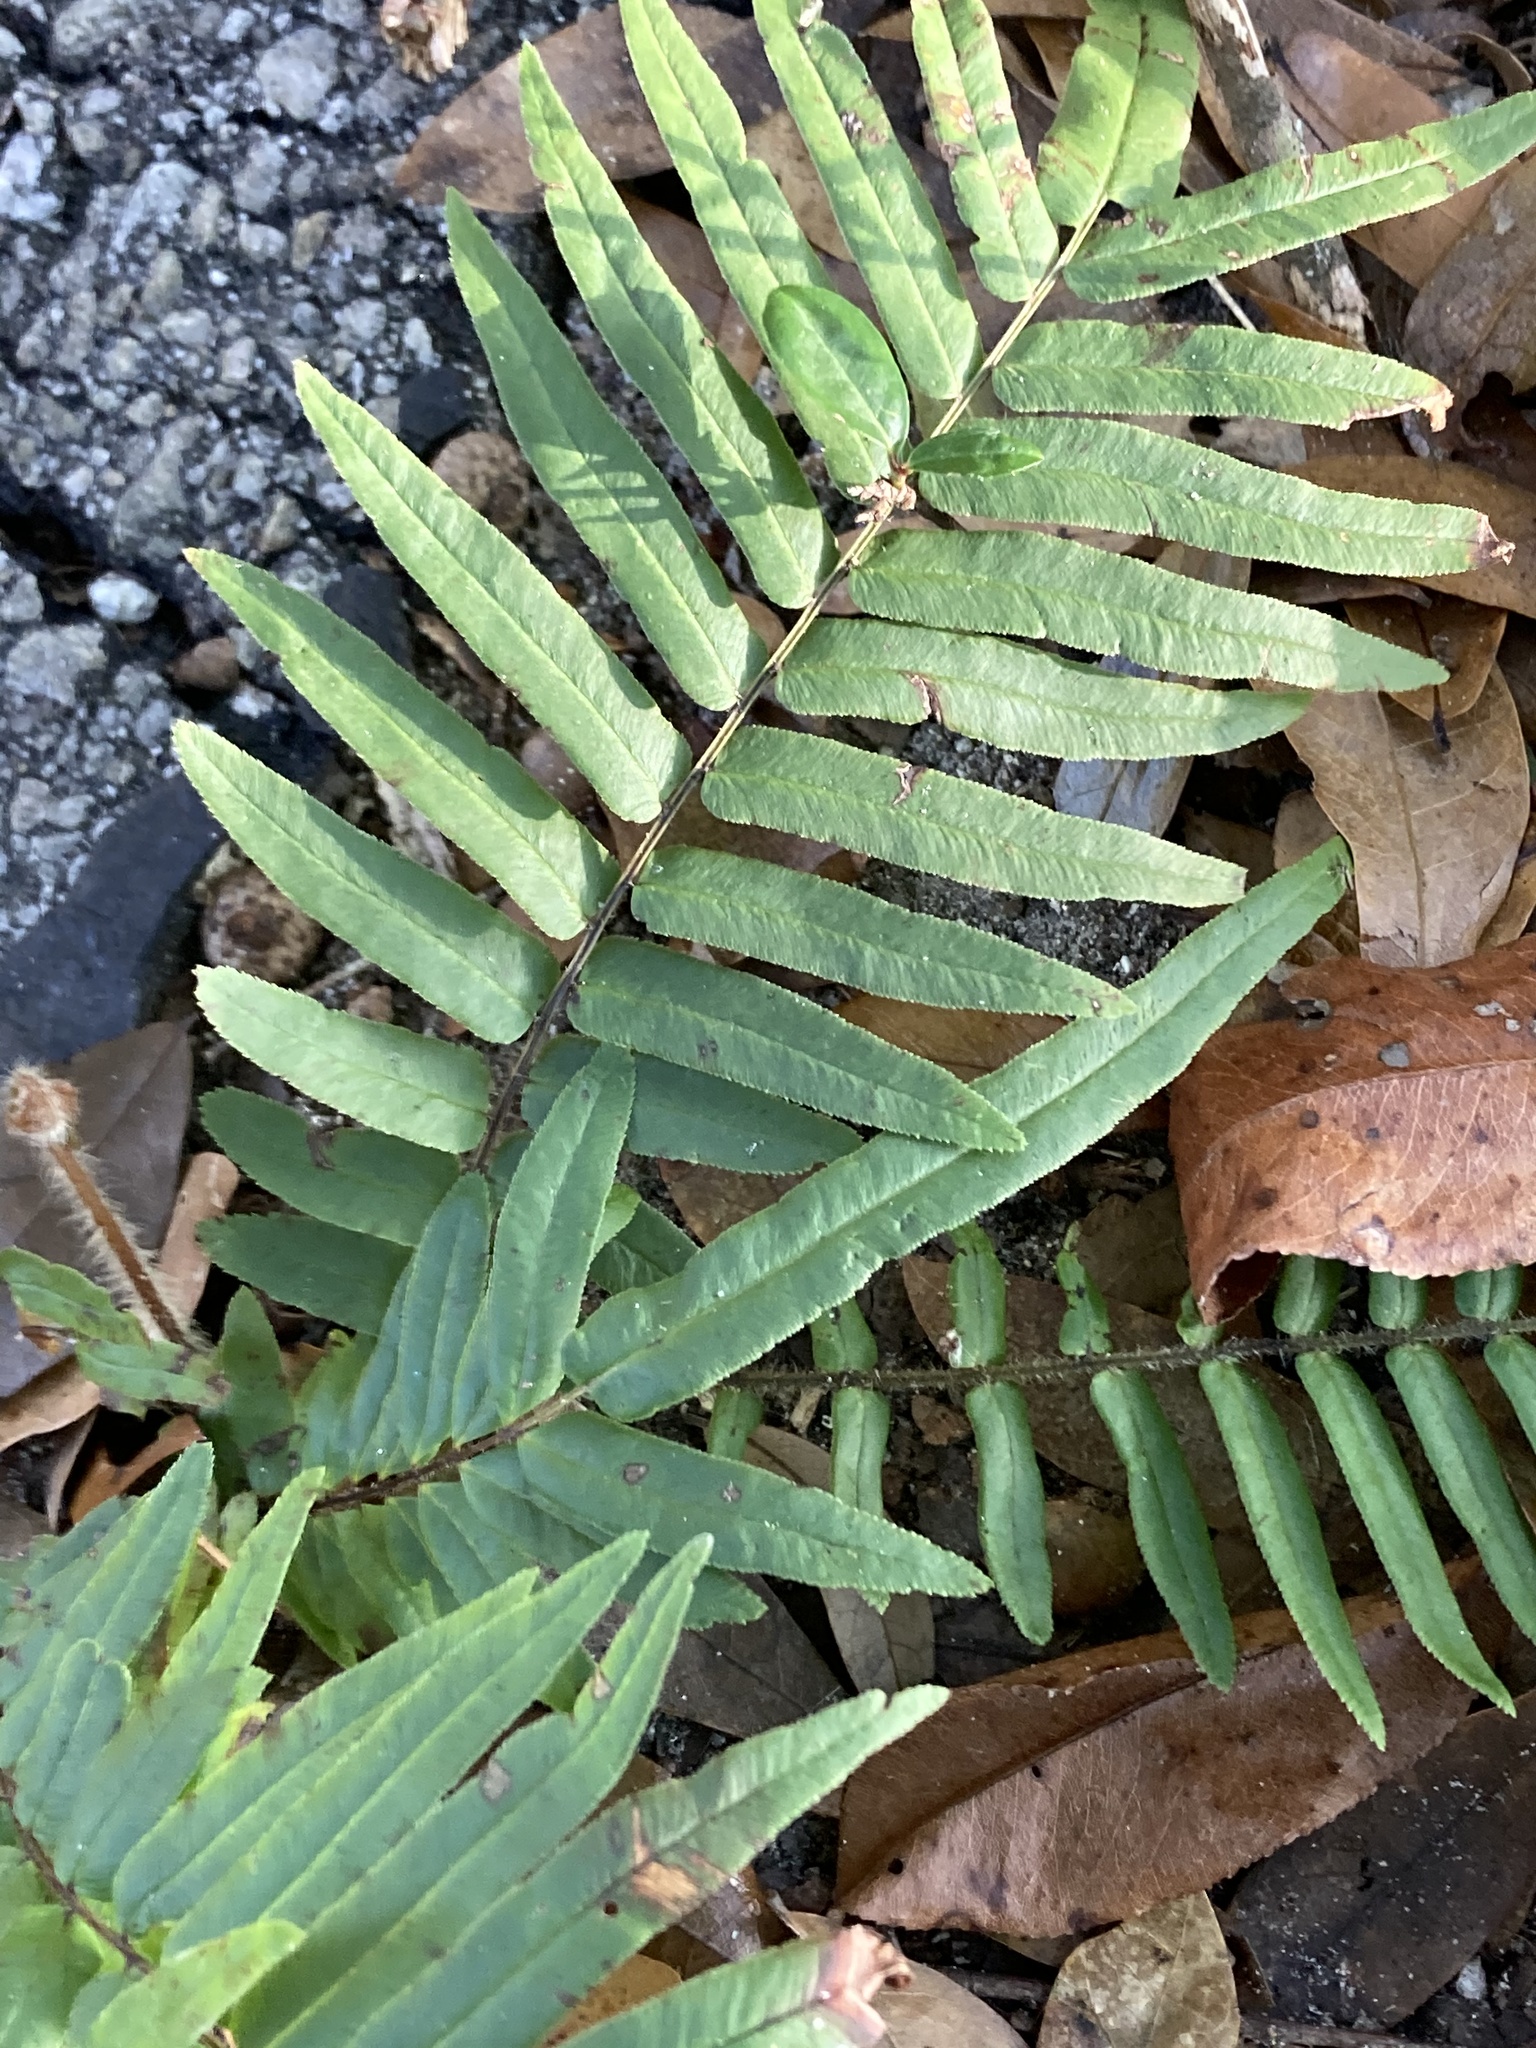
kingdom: Plantae
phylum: Tracheophyta
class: Polypodiopsida
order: Polypodiales
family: Pteridaceae
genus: Pteris
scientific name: Pteris vittata
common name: Ladder brake
